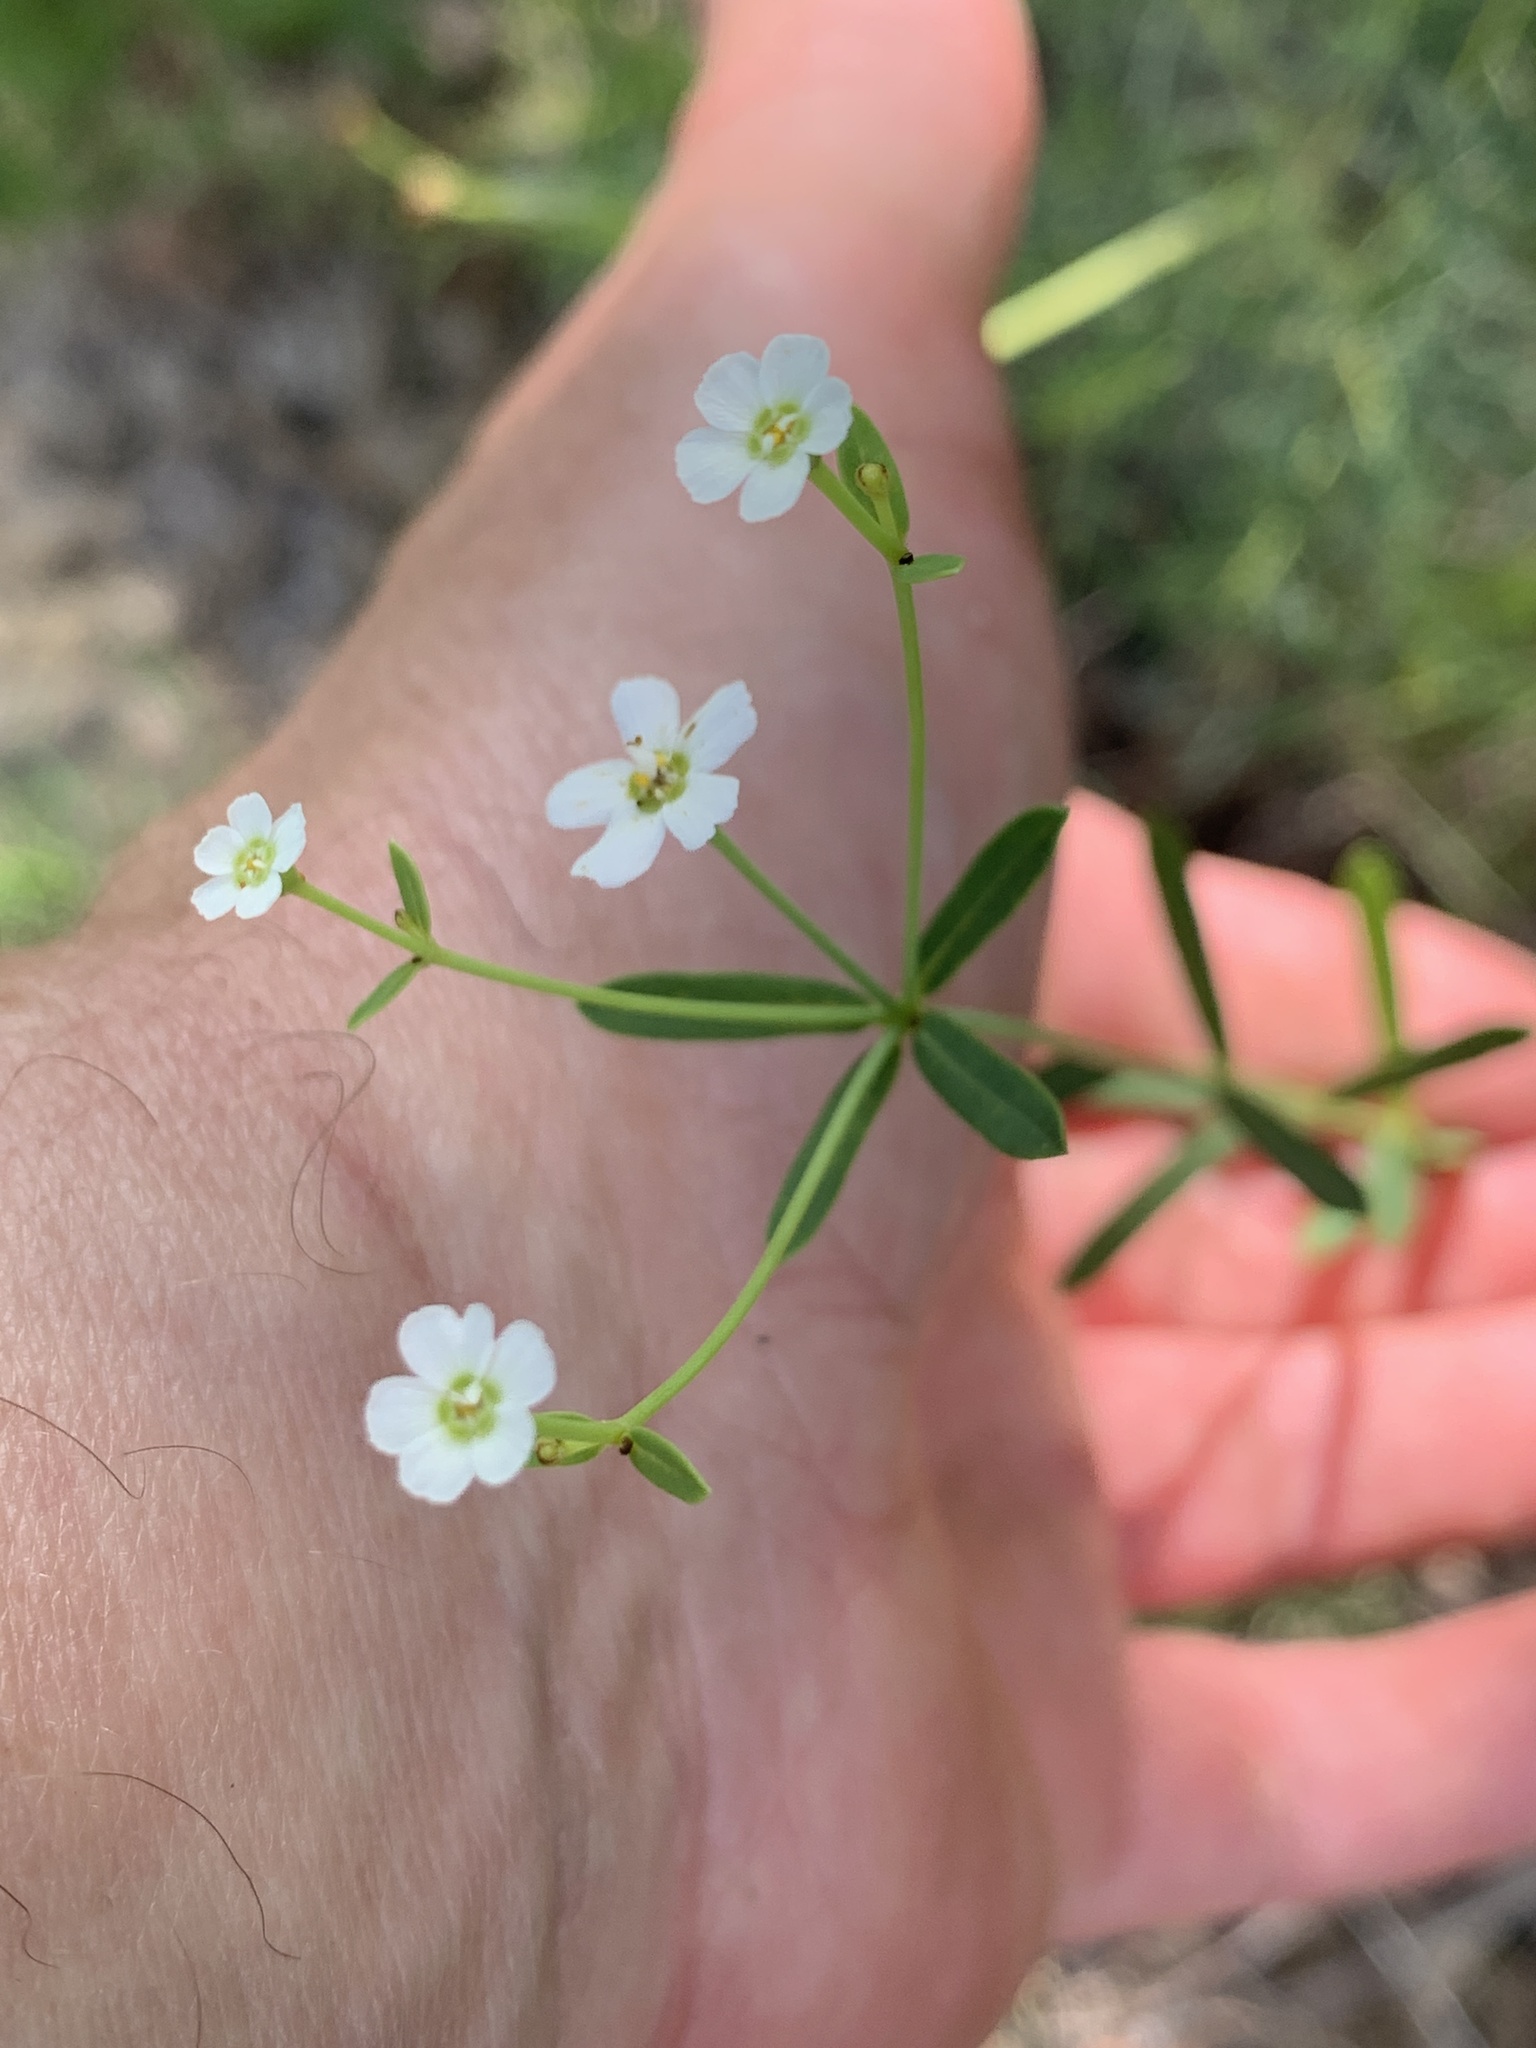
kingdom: Plantae
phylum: Tracheophyta
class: Magnoliopsida
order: Malpighiales
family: Euphorbiaceae
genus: Euphorbia
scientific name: Euphorbia corollata
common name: Flowering spurge
